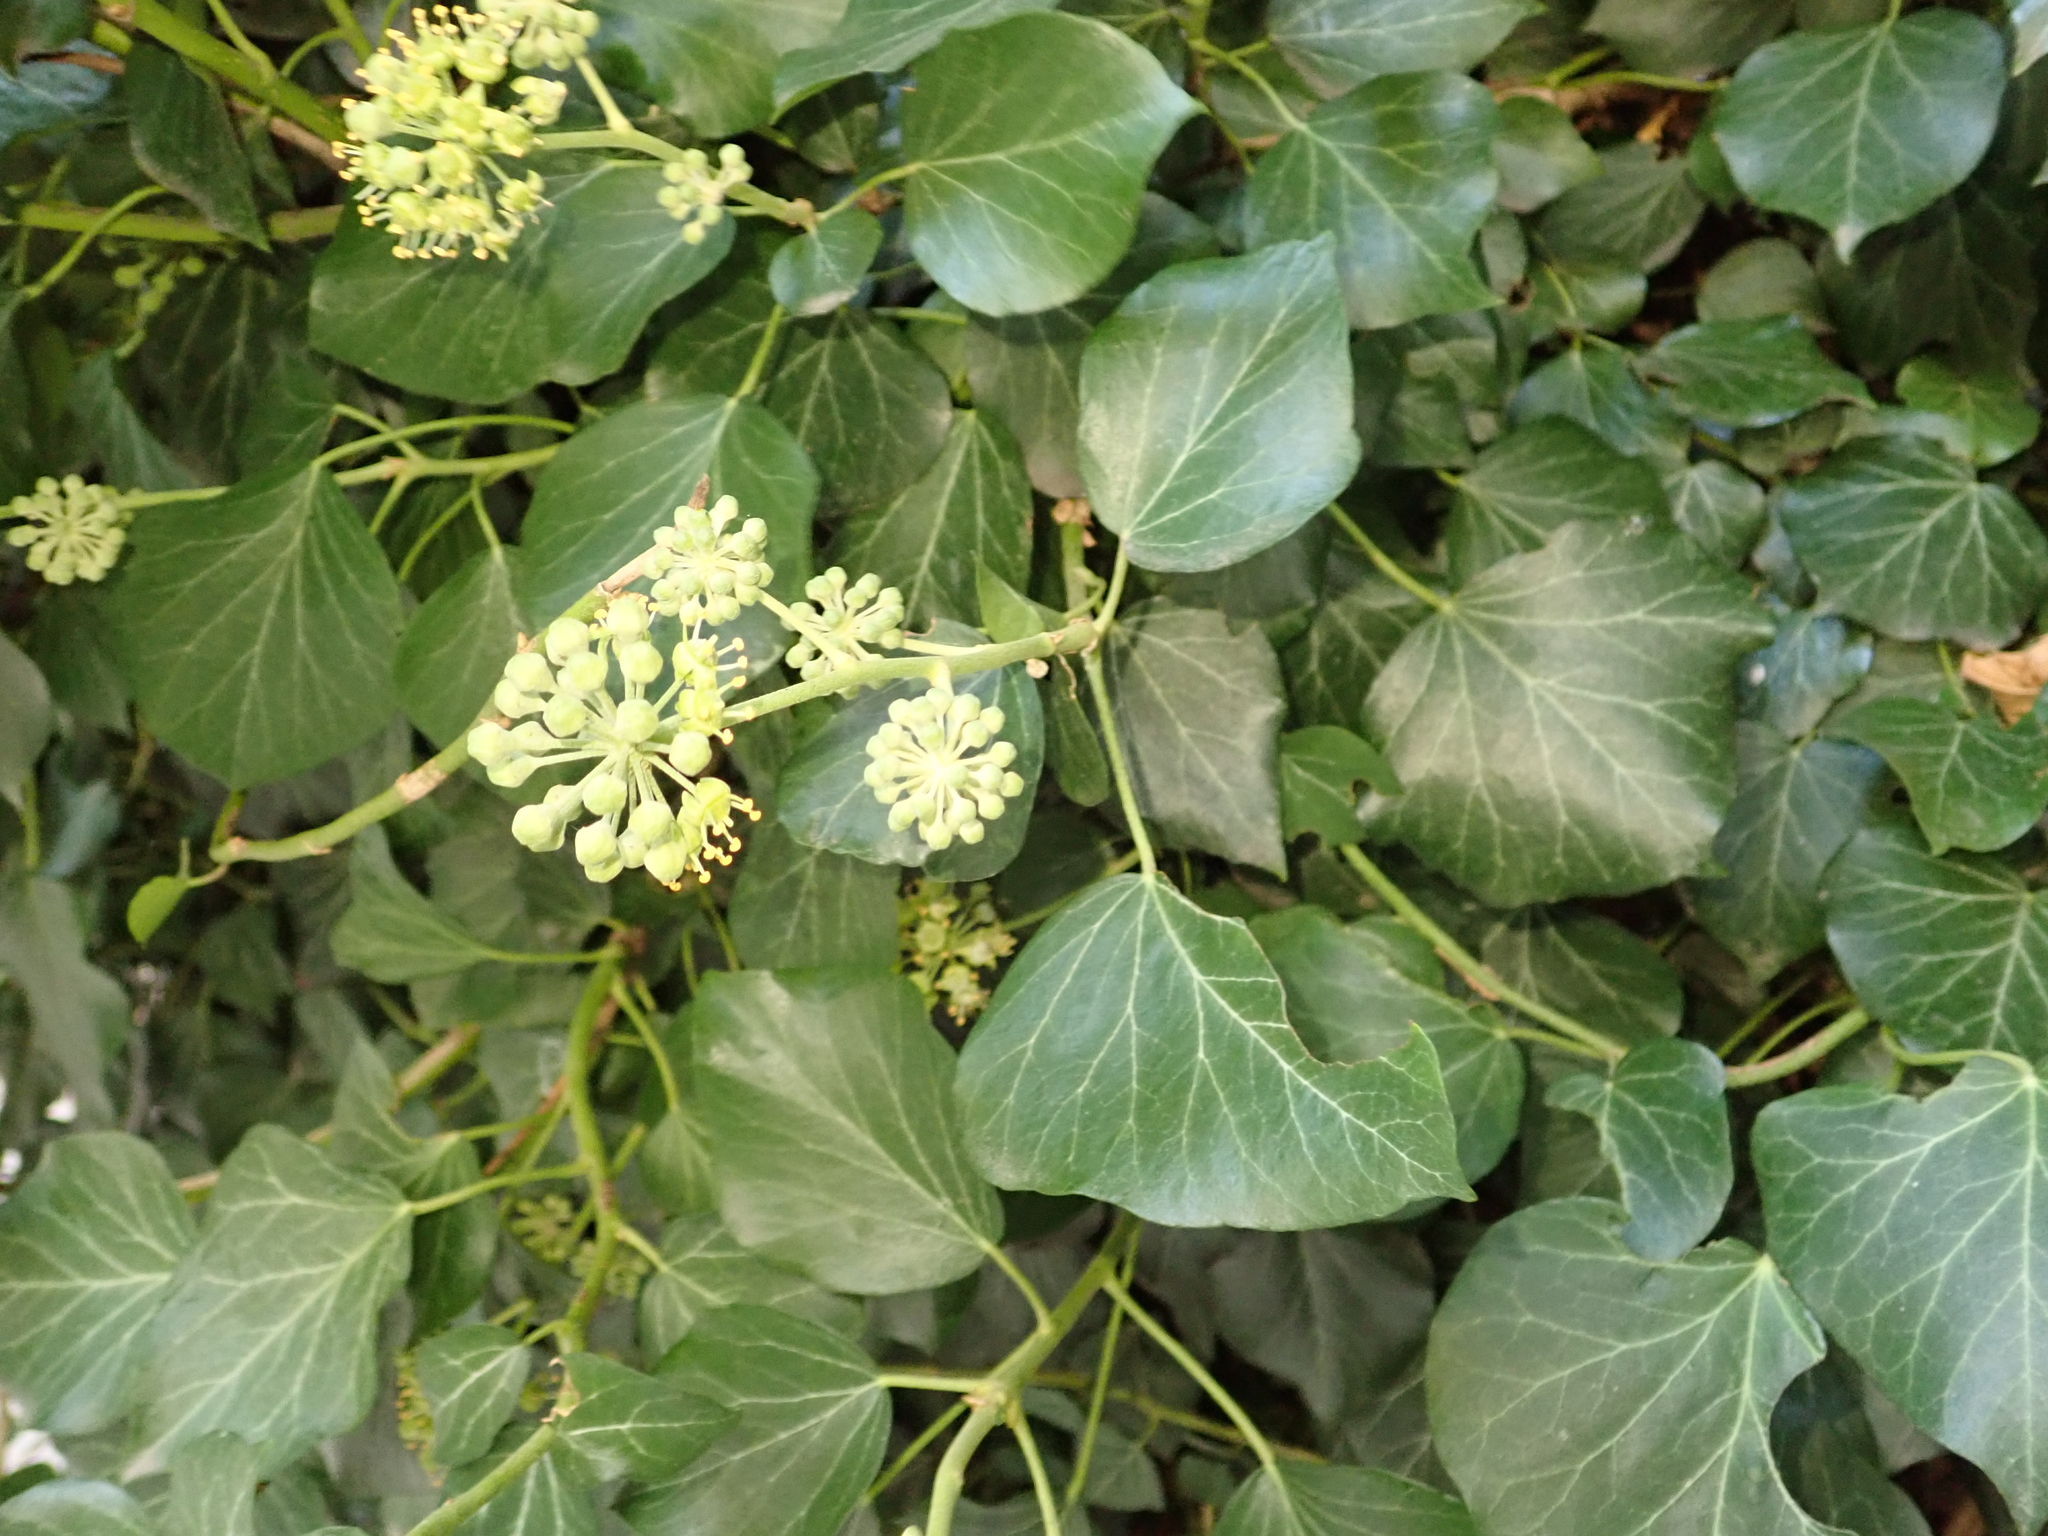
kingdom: Plantae
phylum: Tracheophyta
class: Magnoliopsida
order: Apiales
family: Araliaceae
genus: Hedera
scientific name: Hedera helix
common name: Ivy
